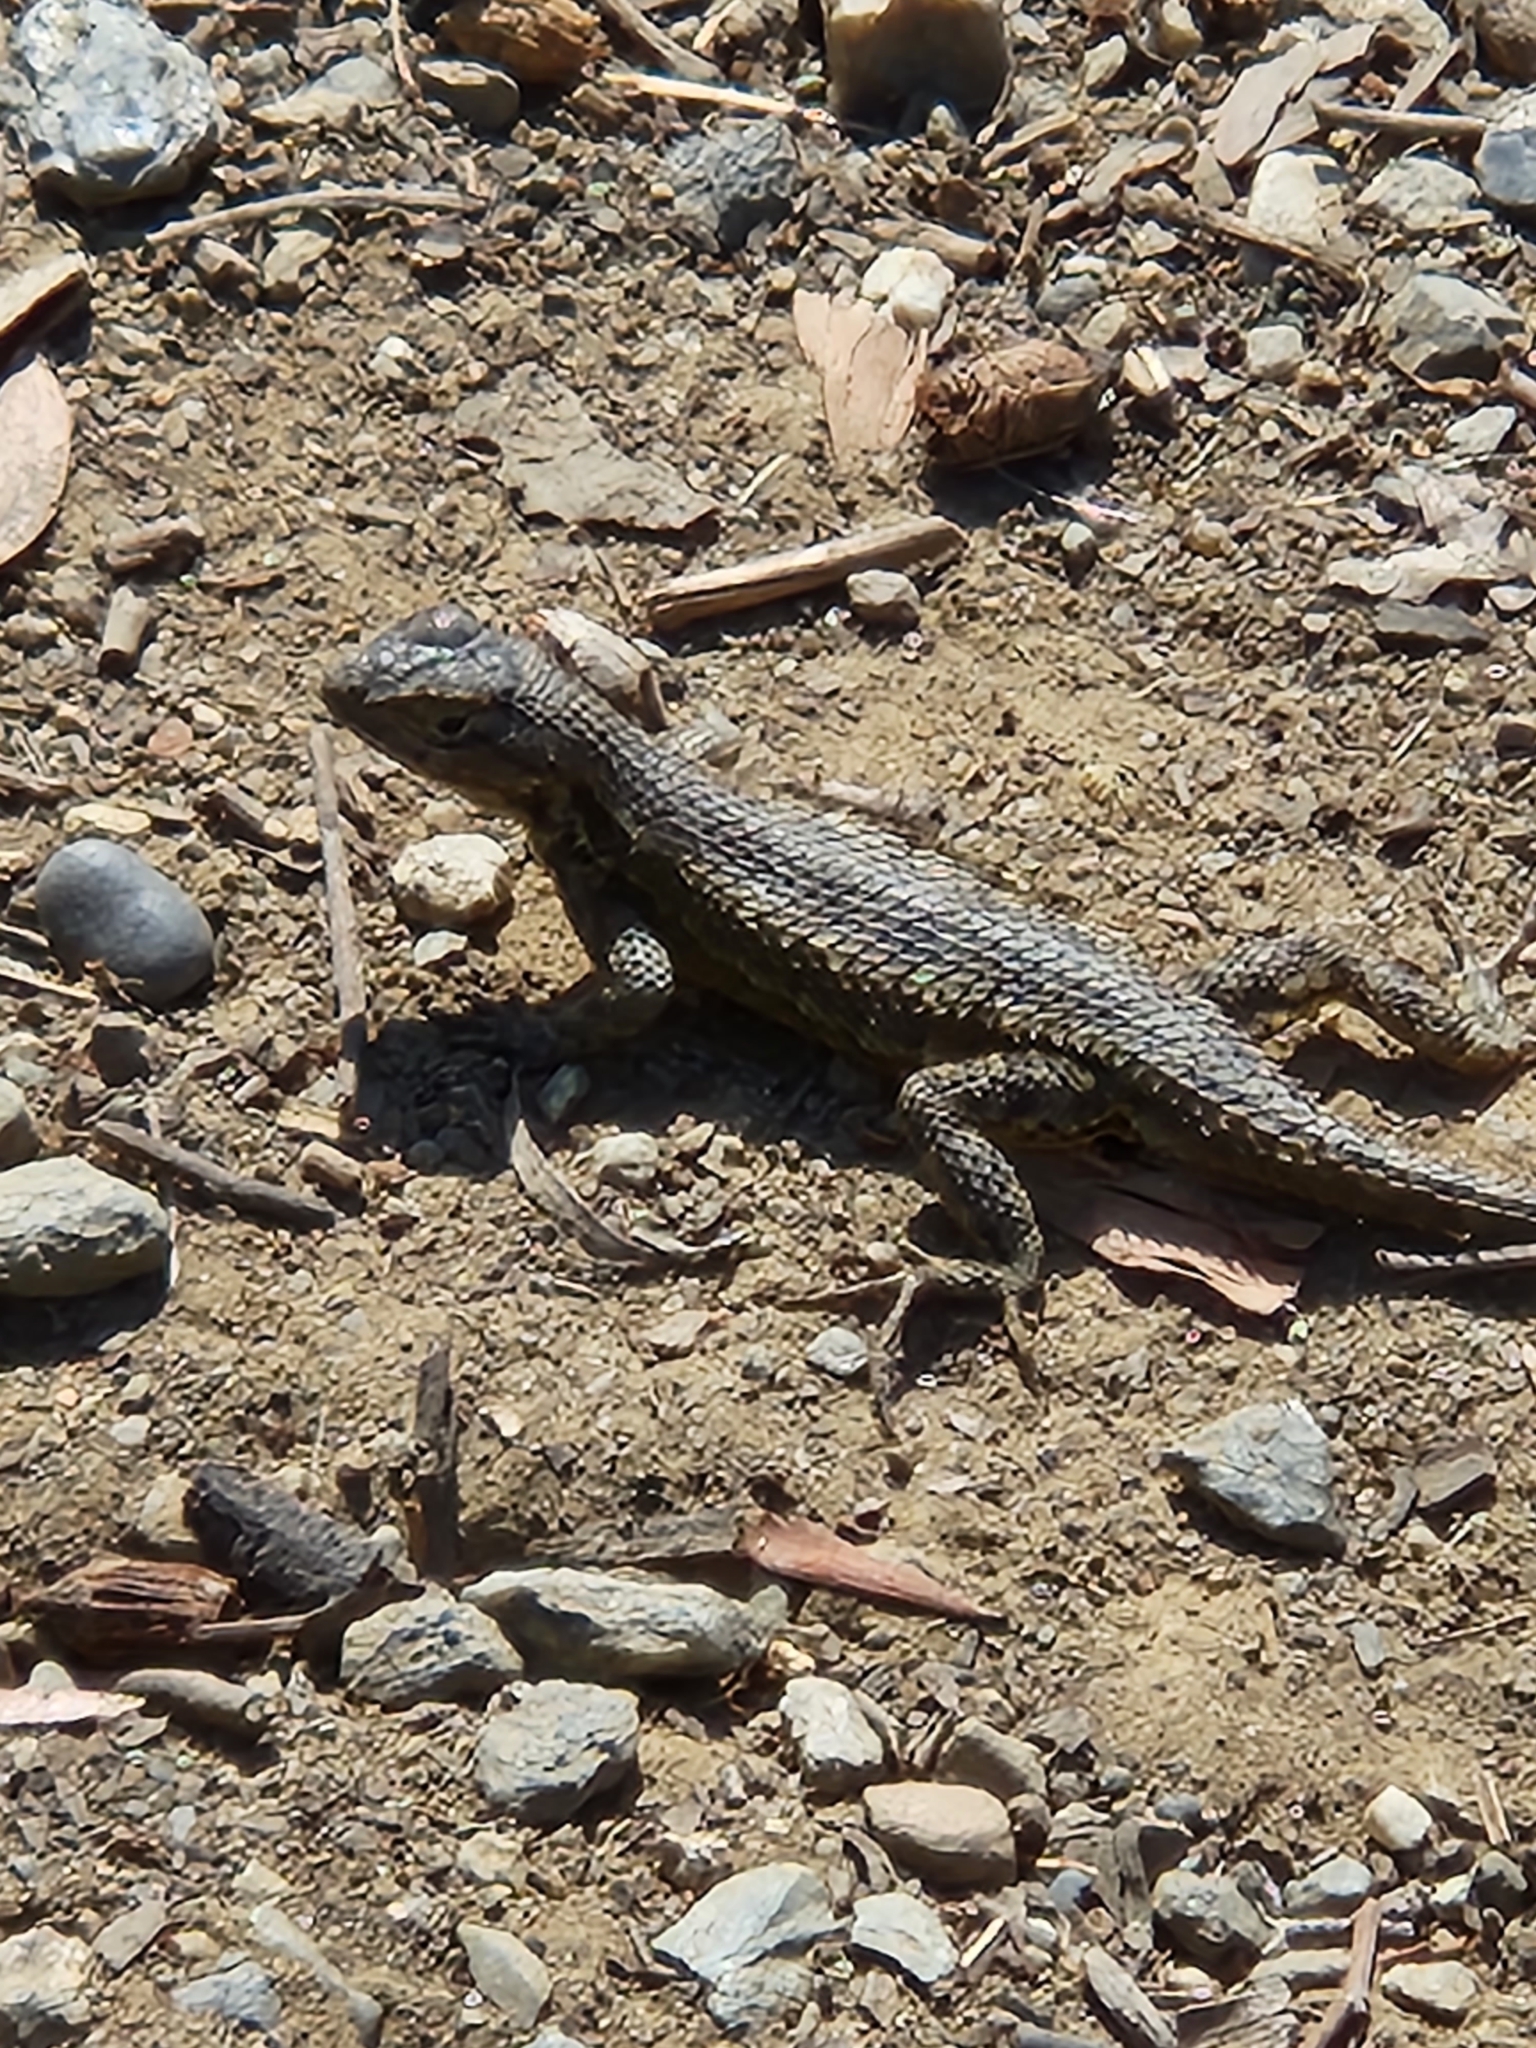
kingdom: Animalia
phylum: Chordata
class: Squamata
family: Phrynosomatidae
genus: Sceloporus
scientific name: Sceloporus occidentalis
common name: Western fence lizard
